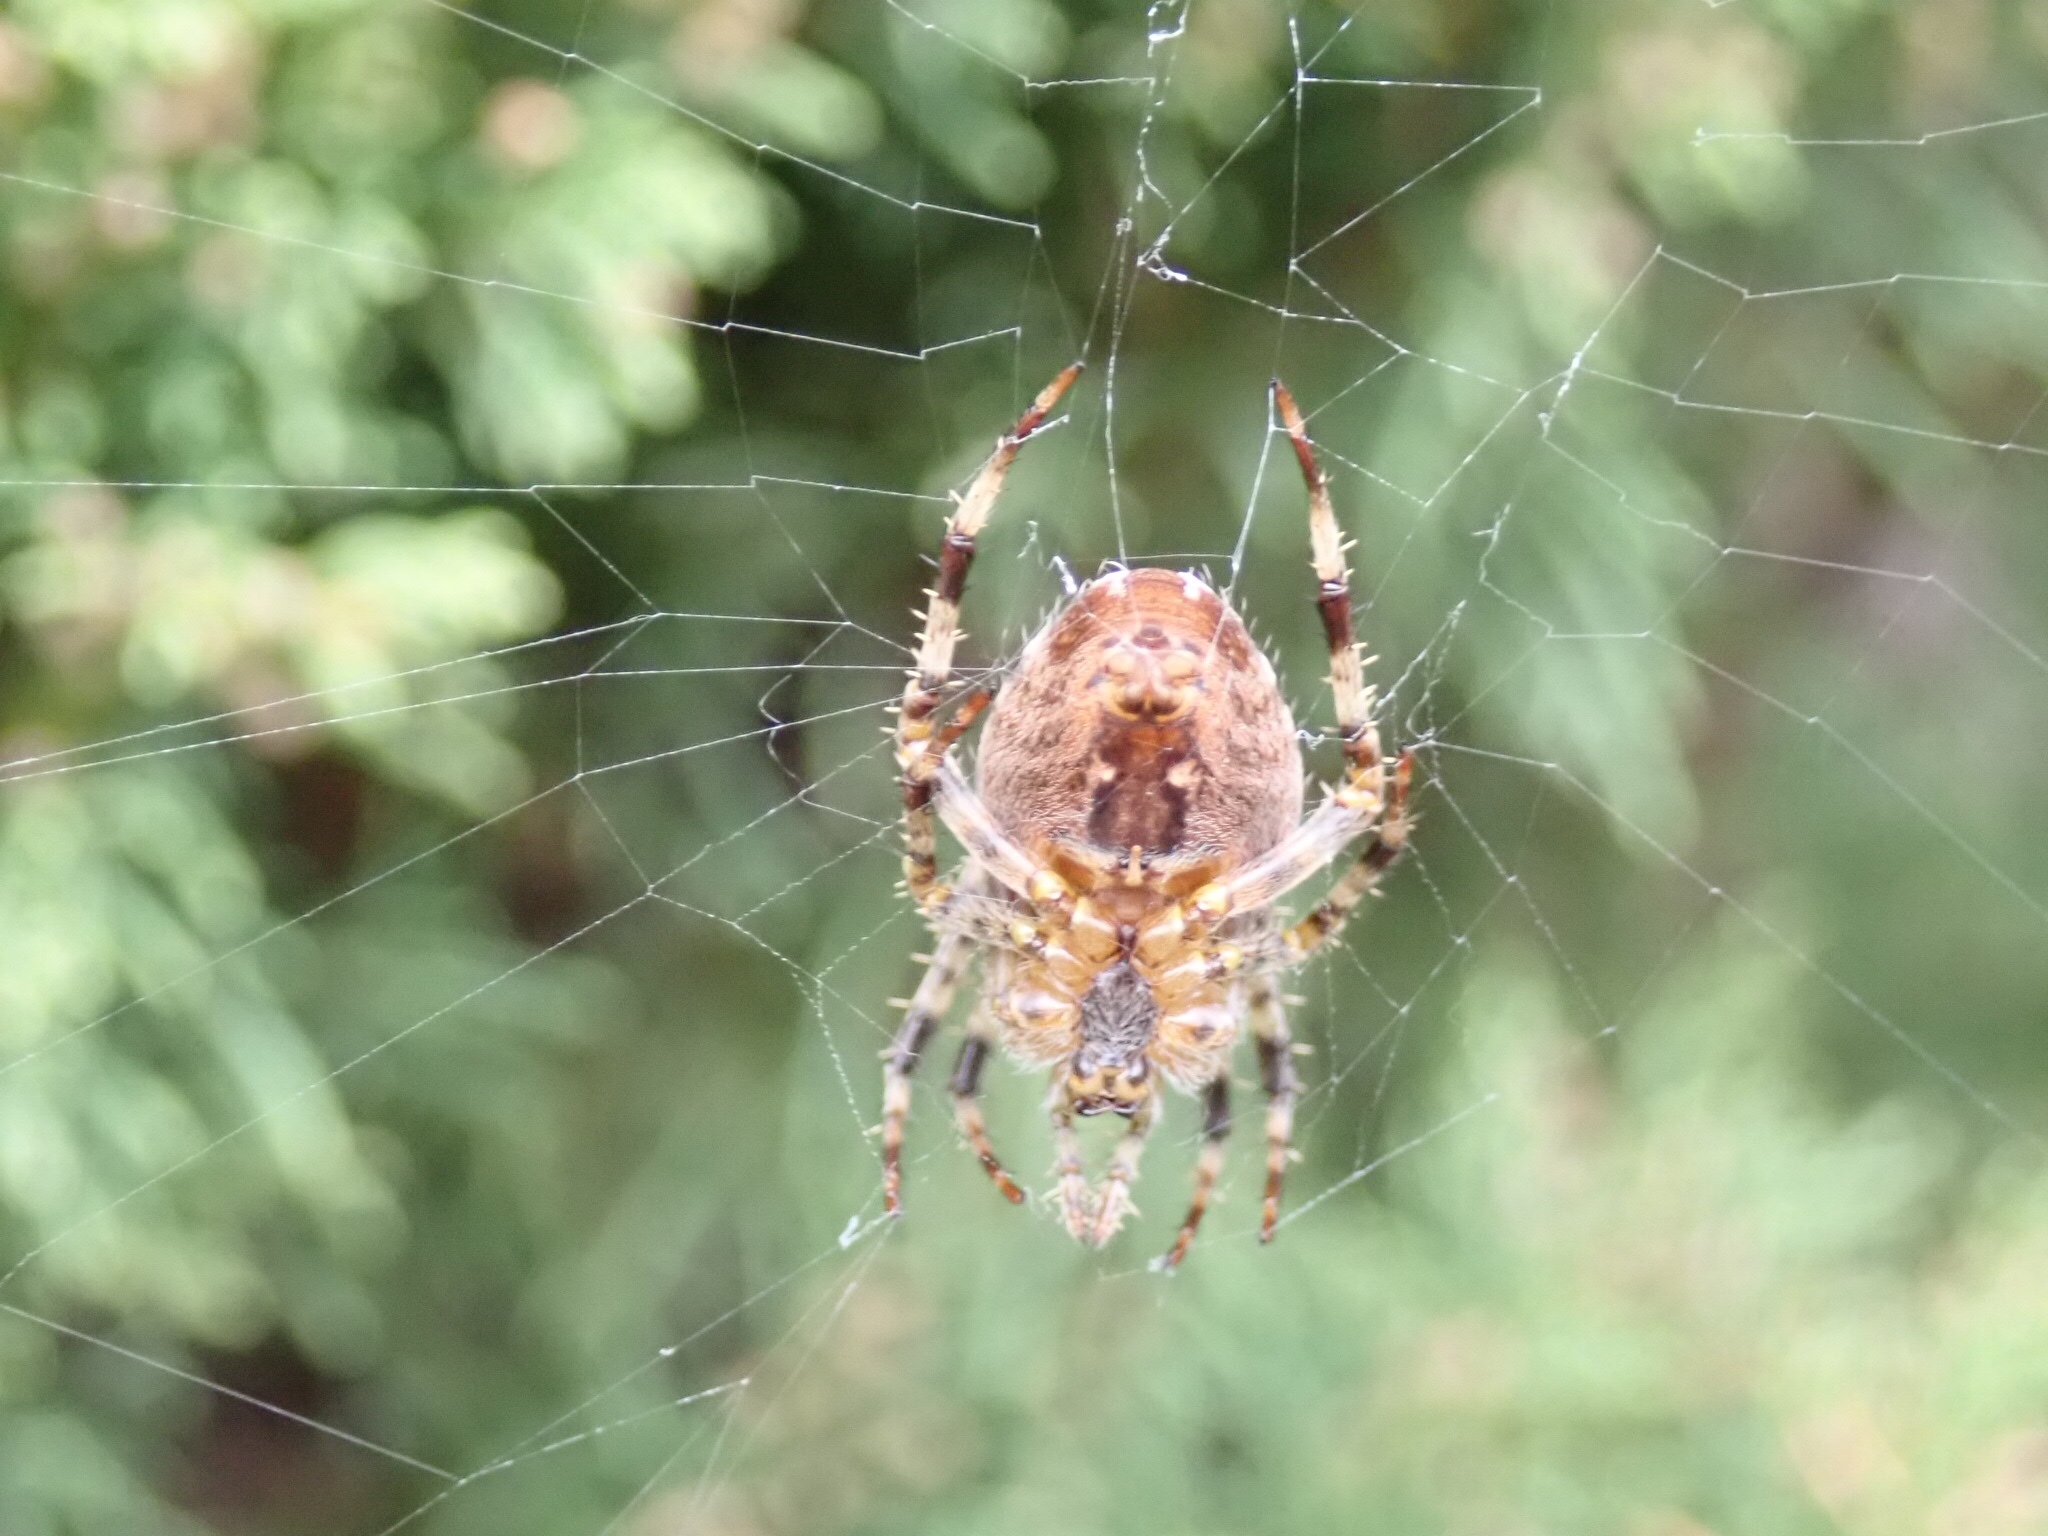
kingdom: Animalia
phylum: Arthropoda
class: Arachnida
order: Araneae
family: Araneidae
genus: Araneus
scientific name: Araneus diadematus
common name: Cross orbweaver
